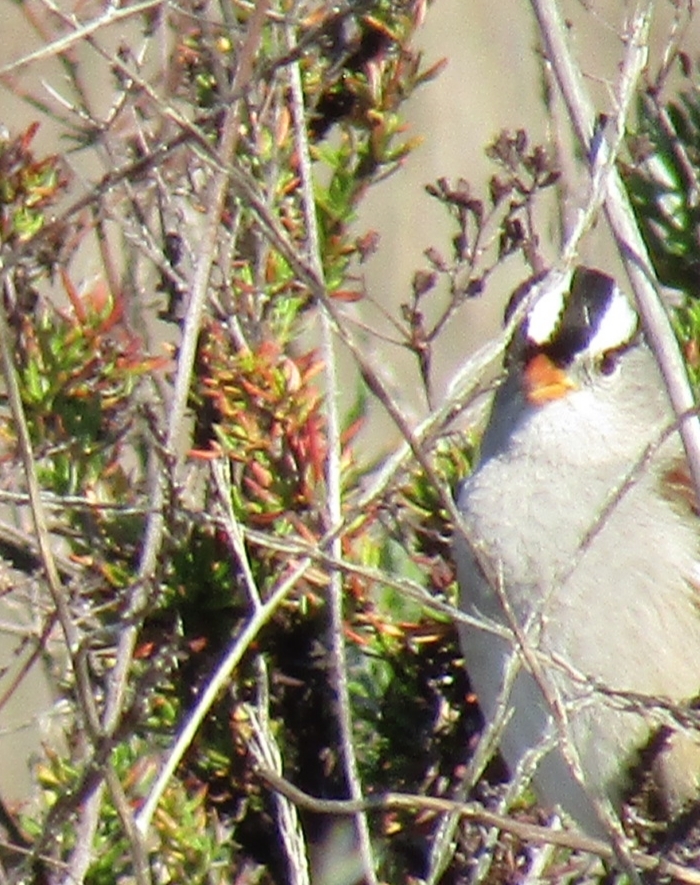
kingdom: Animalia
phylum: Chordata
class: Aves
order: Passeriformes
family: Passerellidae
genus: Zonotrichia
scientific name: Zonotrichia leucophrys
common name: White-crowned sparrow
